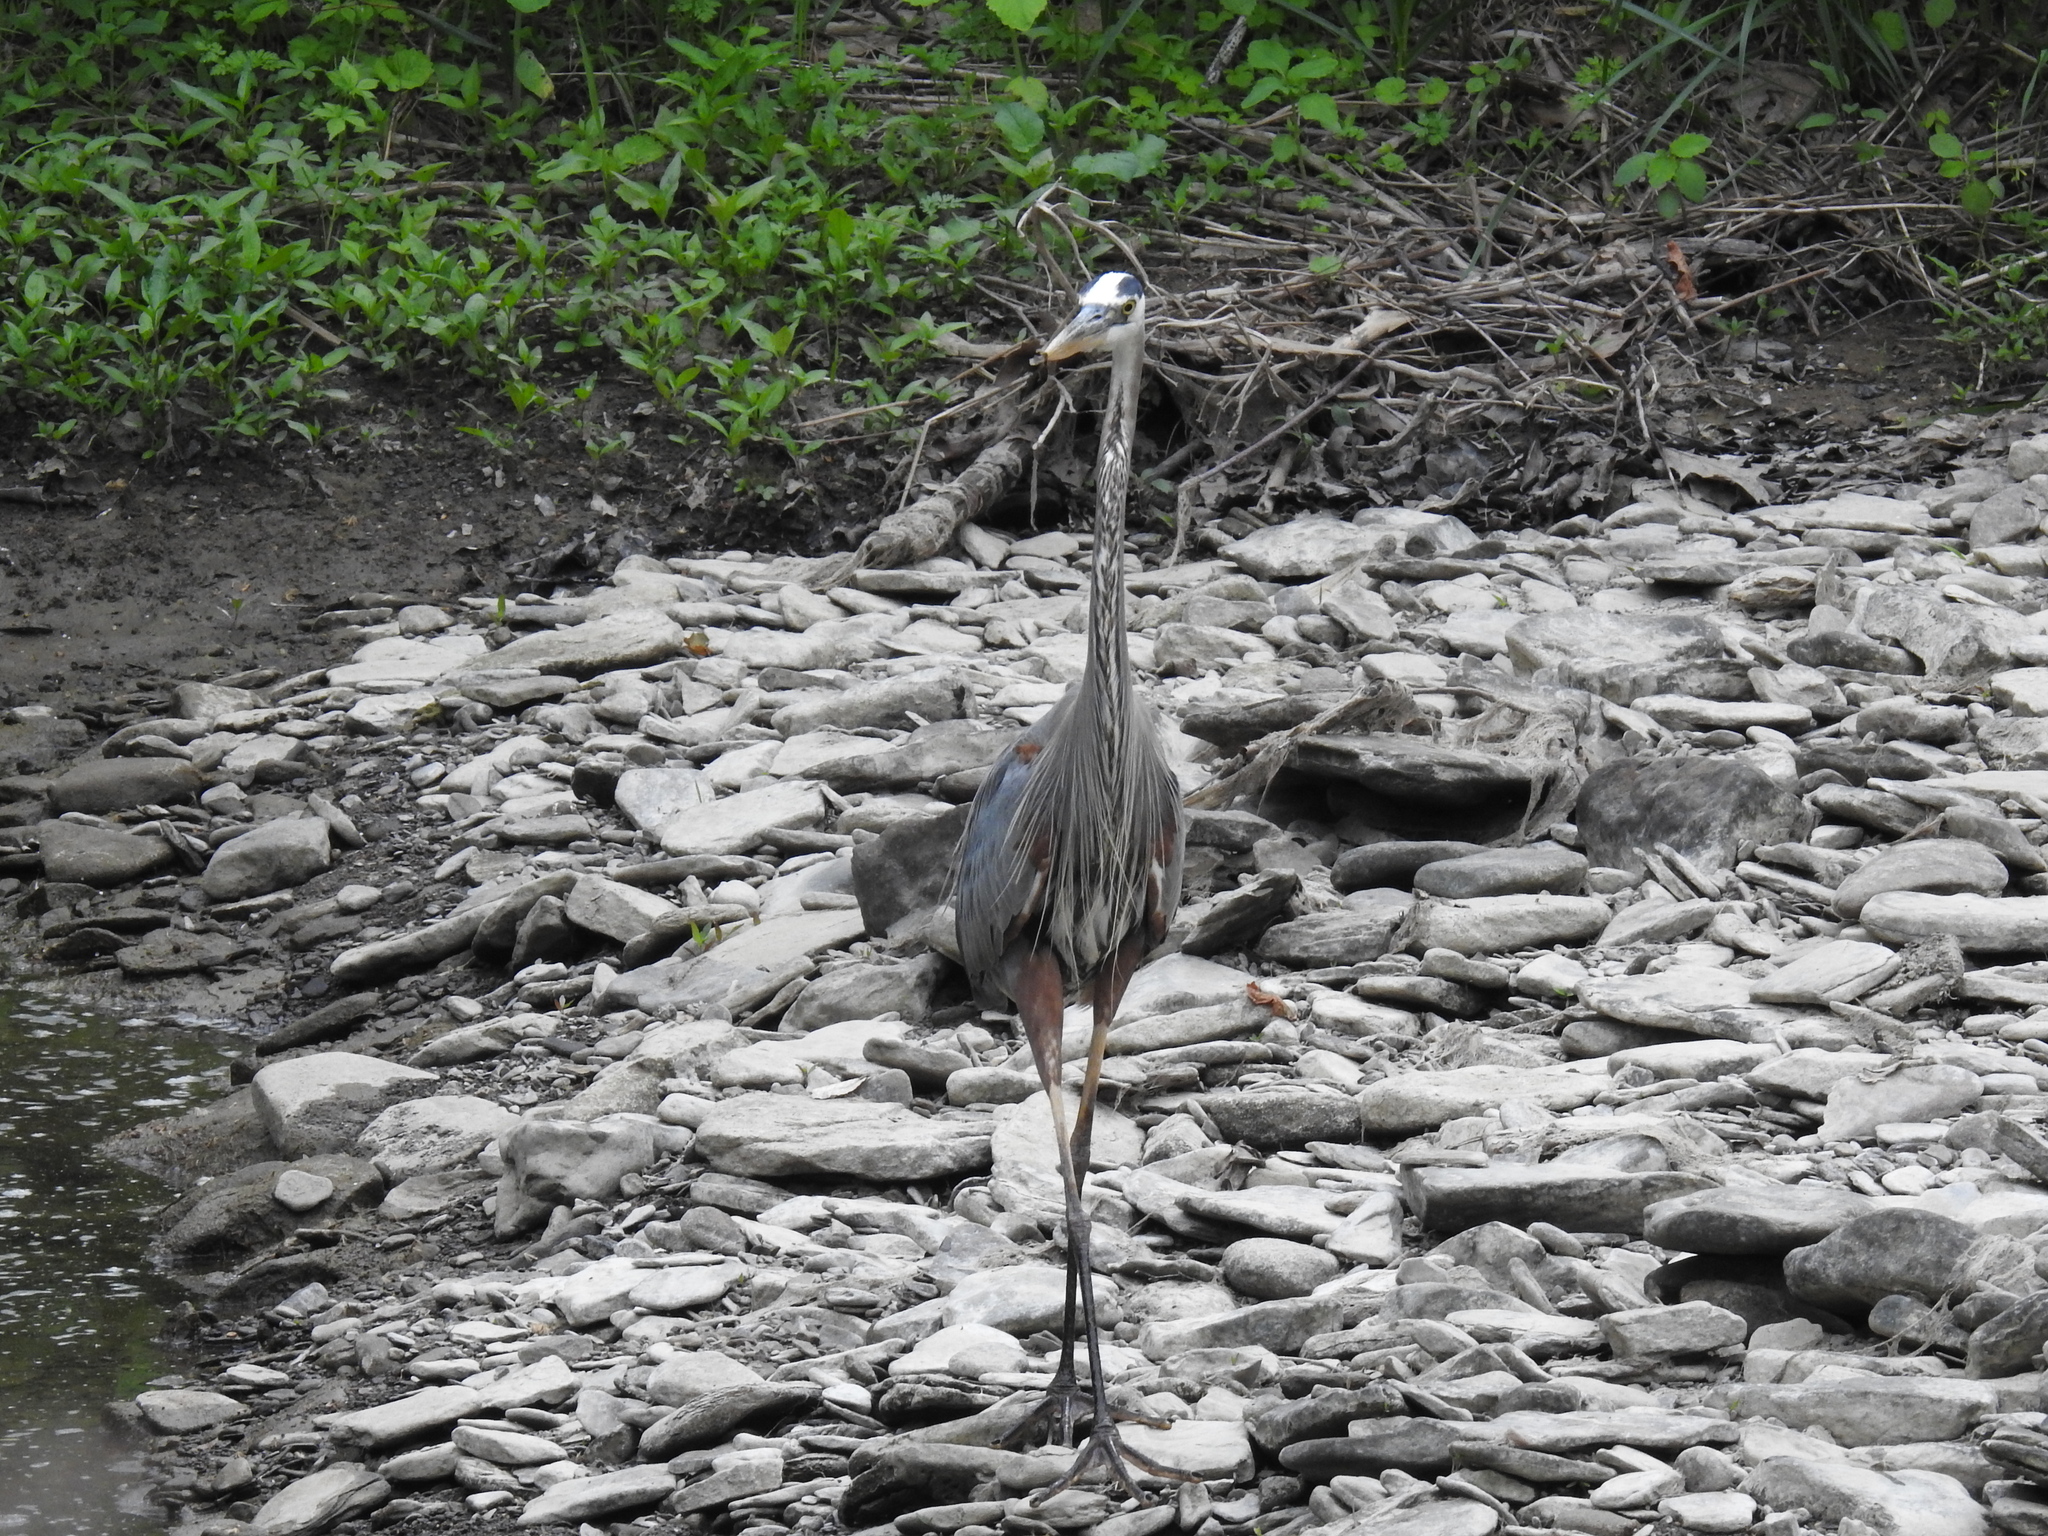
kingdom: Animalia
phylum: Chordata
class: Aves
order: Pelecaniformes
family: Ardeidae
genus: Ardea
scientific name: Ardea herodias
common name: Great blue heron
